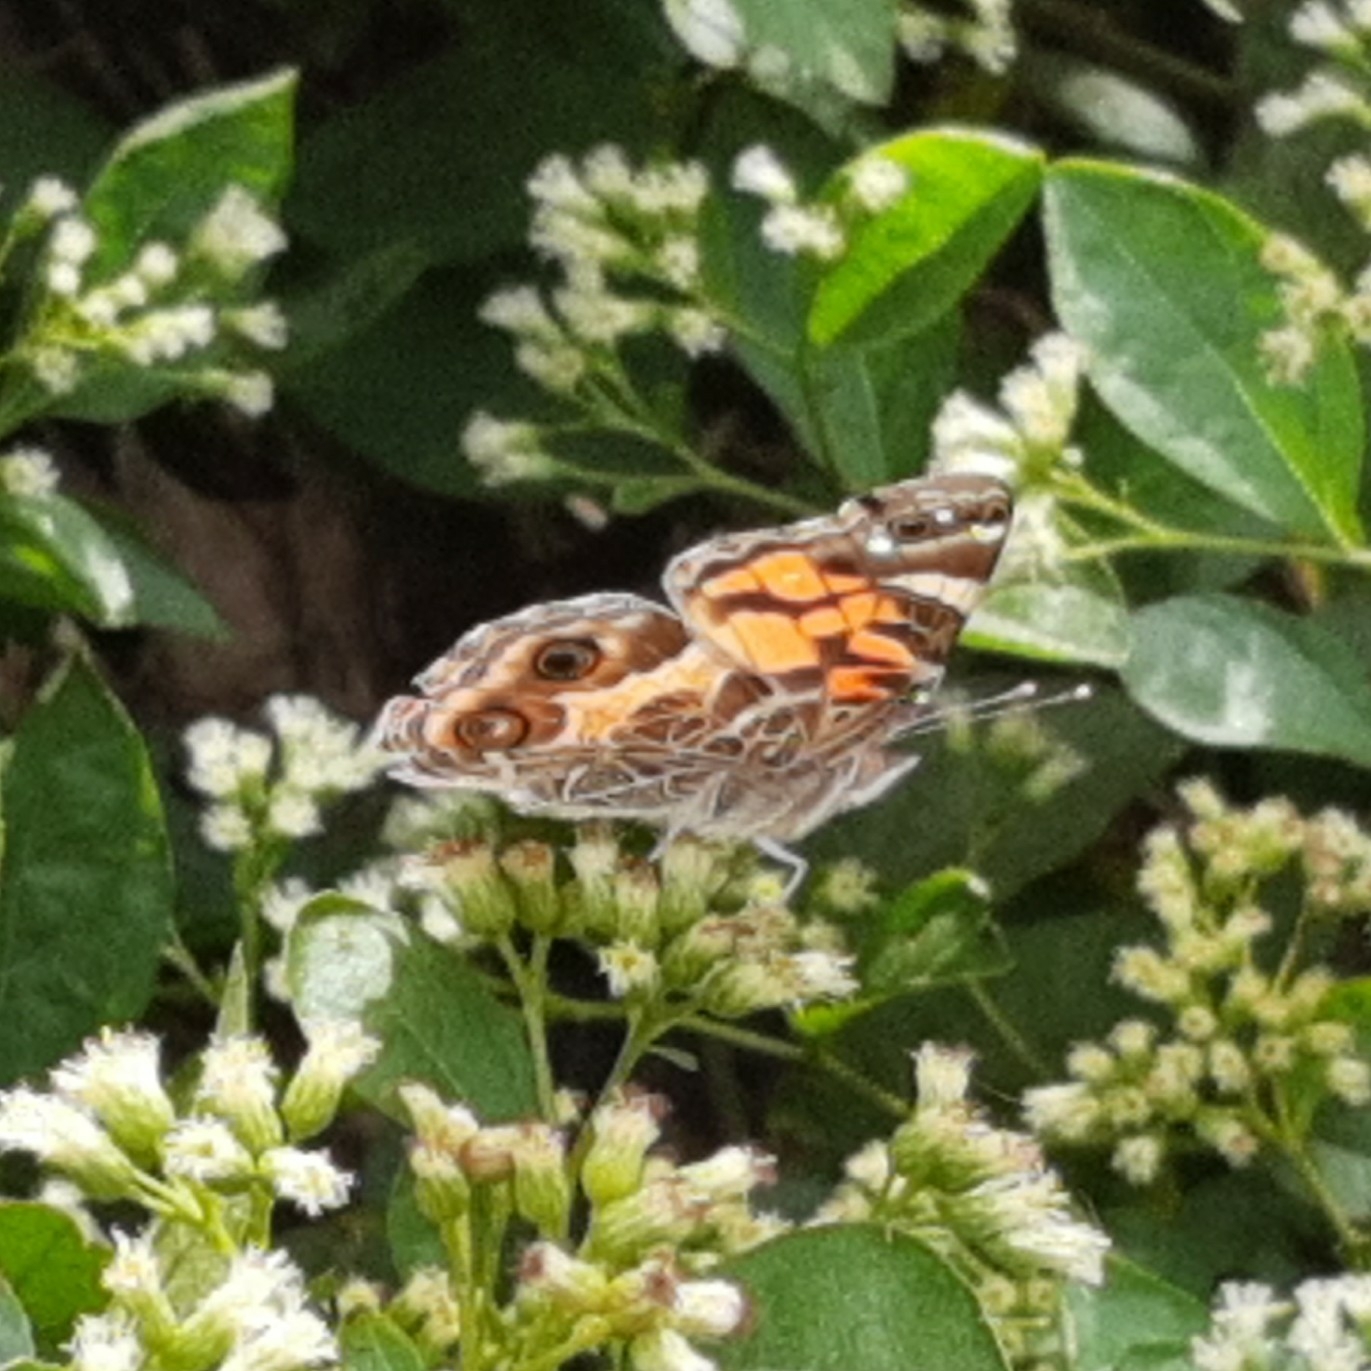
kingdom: Animalia
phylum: Arthropoda
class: Insecta
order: Lepidoptera
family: Nymphalidae
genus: Vanessa
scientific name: Vanessa virginiensis
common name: American lady
